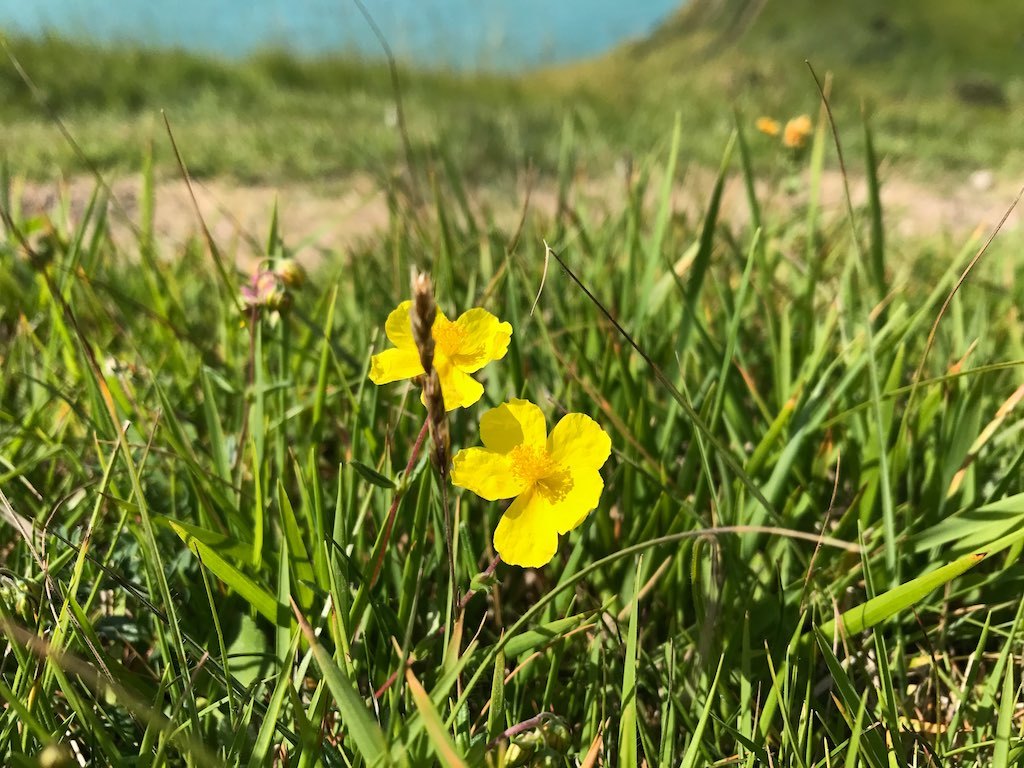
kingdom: Plantae
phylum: Tracheophyta
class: Magnoliopsida
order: Malvales
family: Cistaceae
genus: Helianthemum
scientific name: Helianthemum nummularium
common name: Common rock-rose
